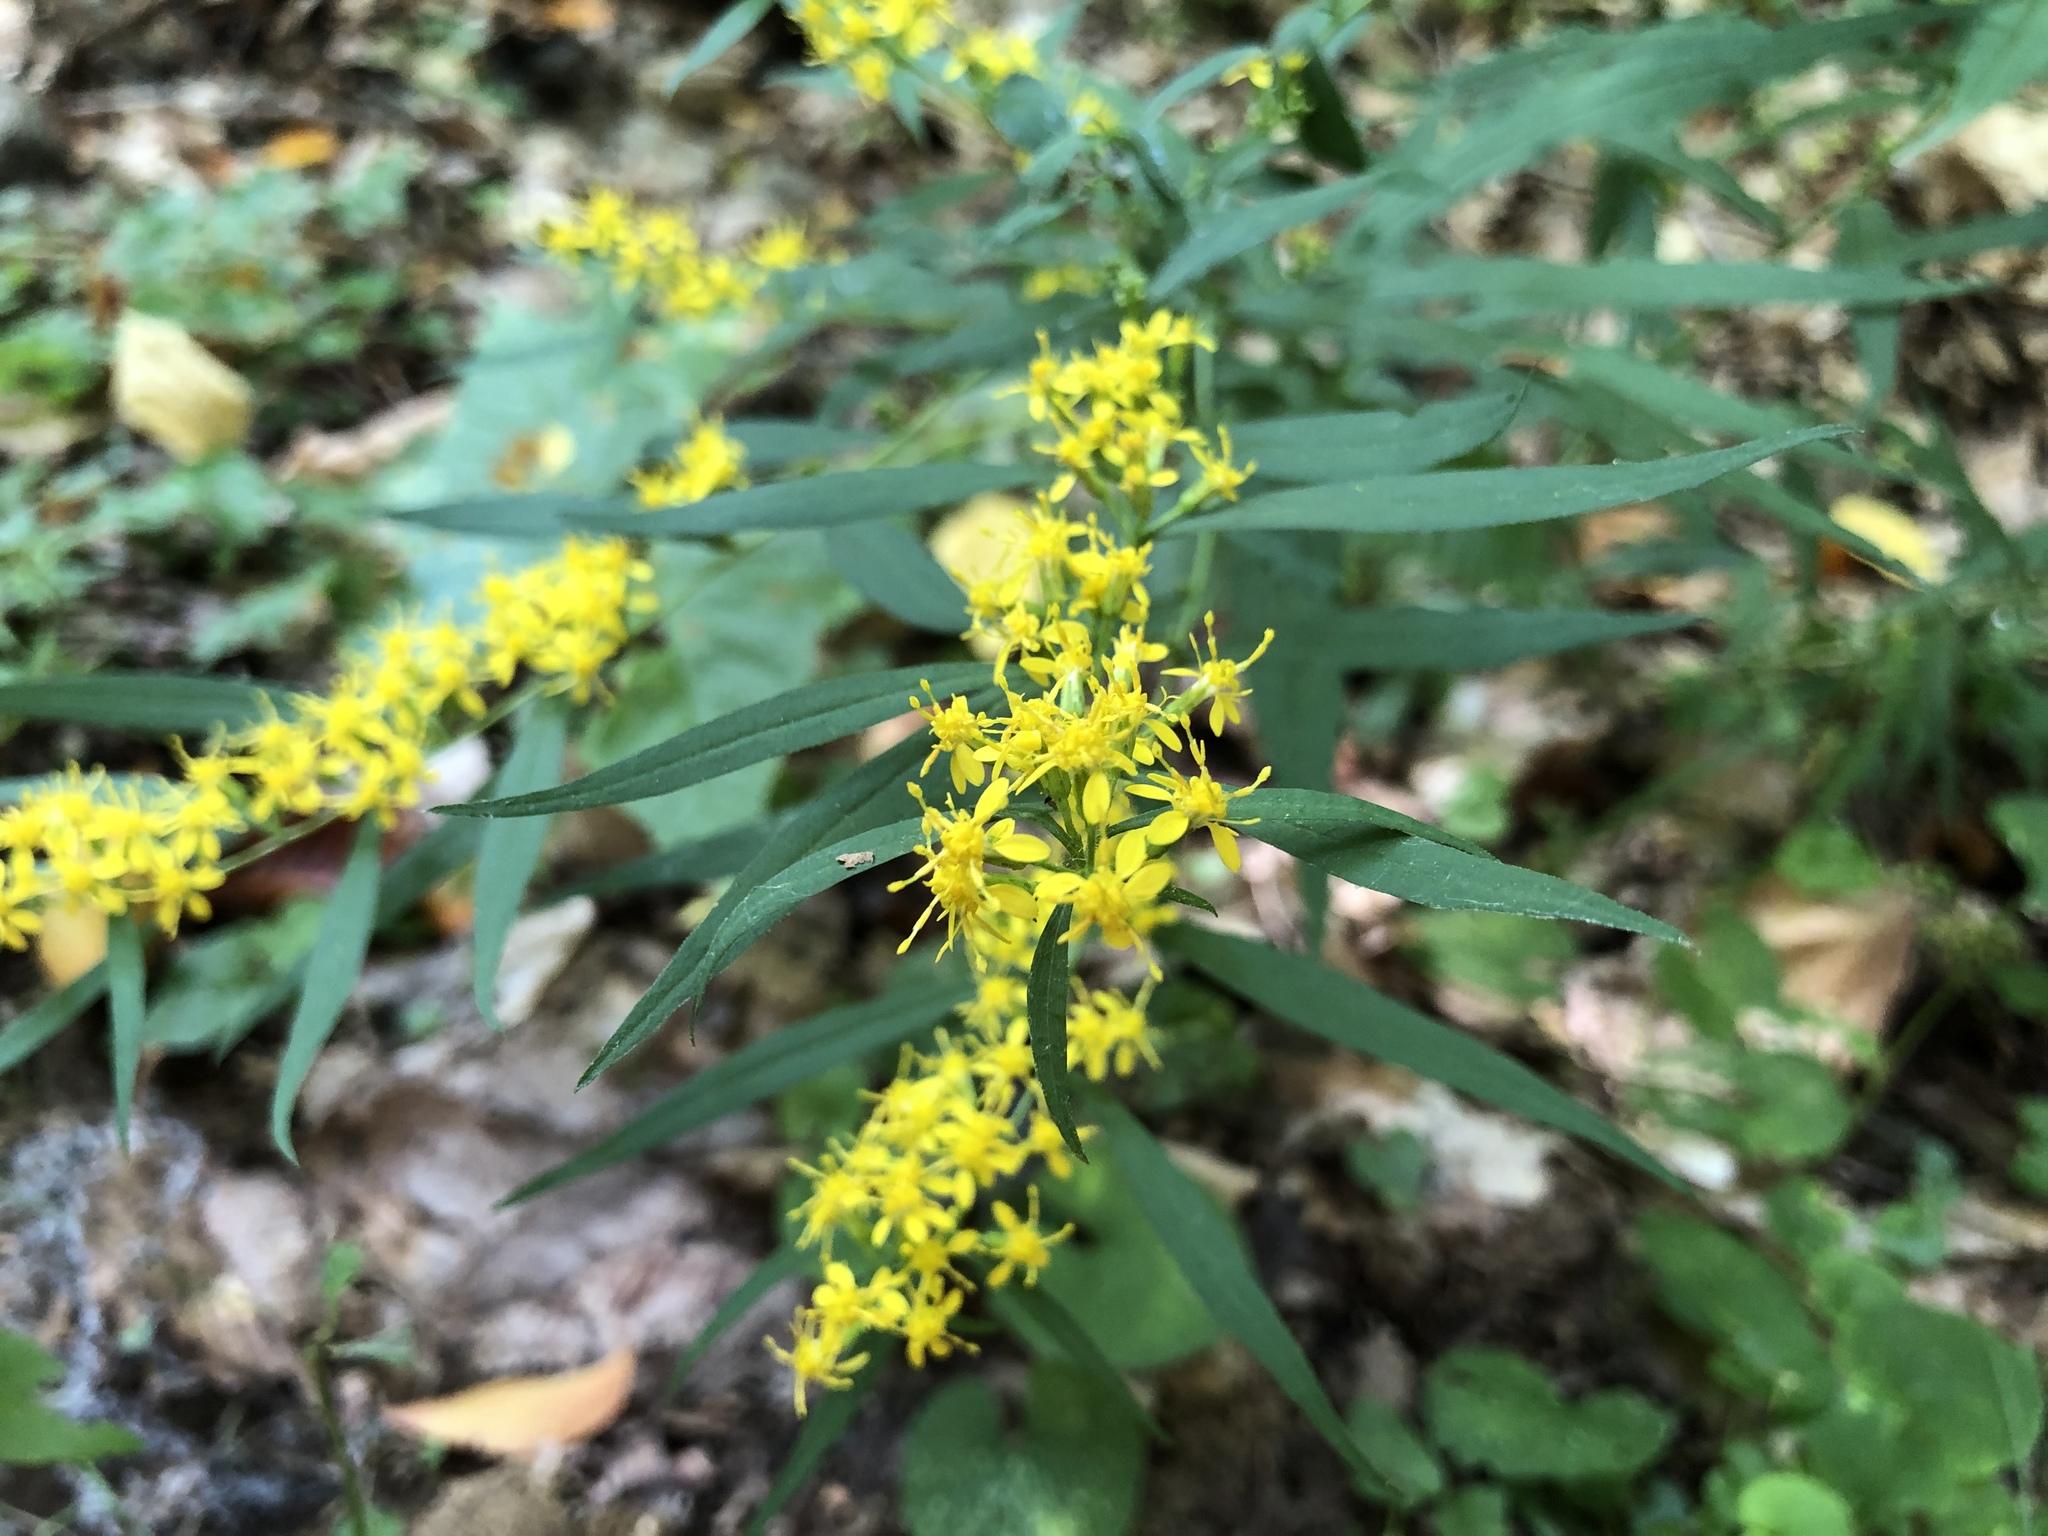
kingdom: Plantae
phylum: Tracheophyta
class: Magnoliopsida
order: Asterales
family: Asteraceae
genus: Solidago
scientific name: Solidago caesia
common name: Woodland goldenrod
